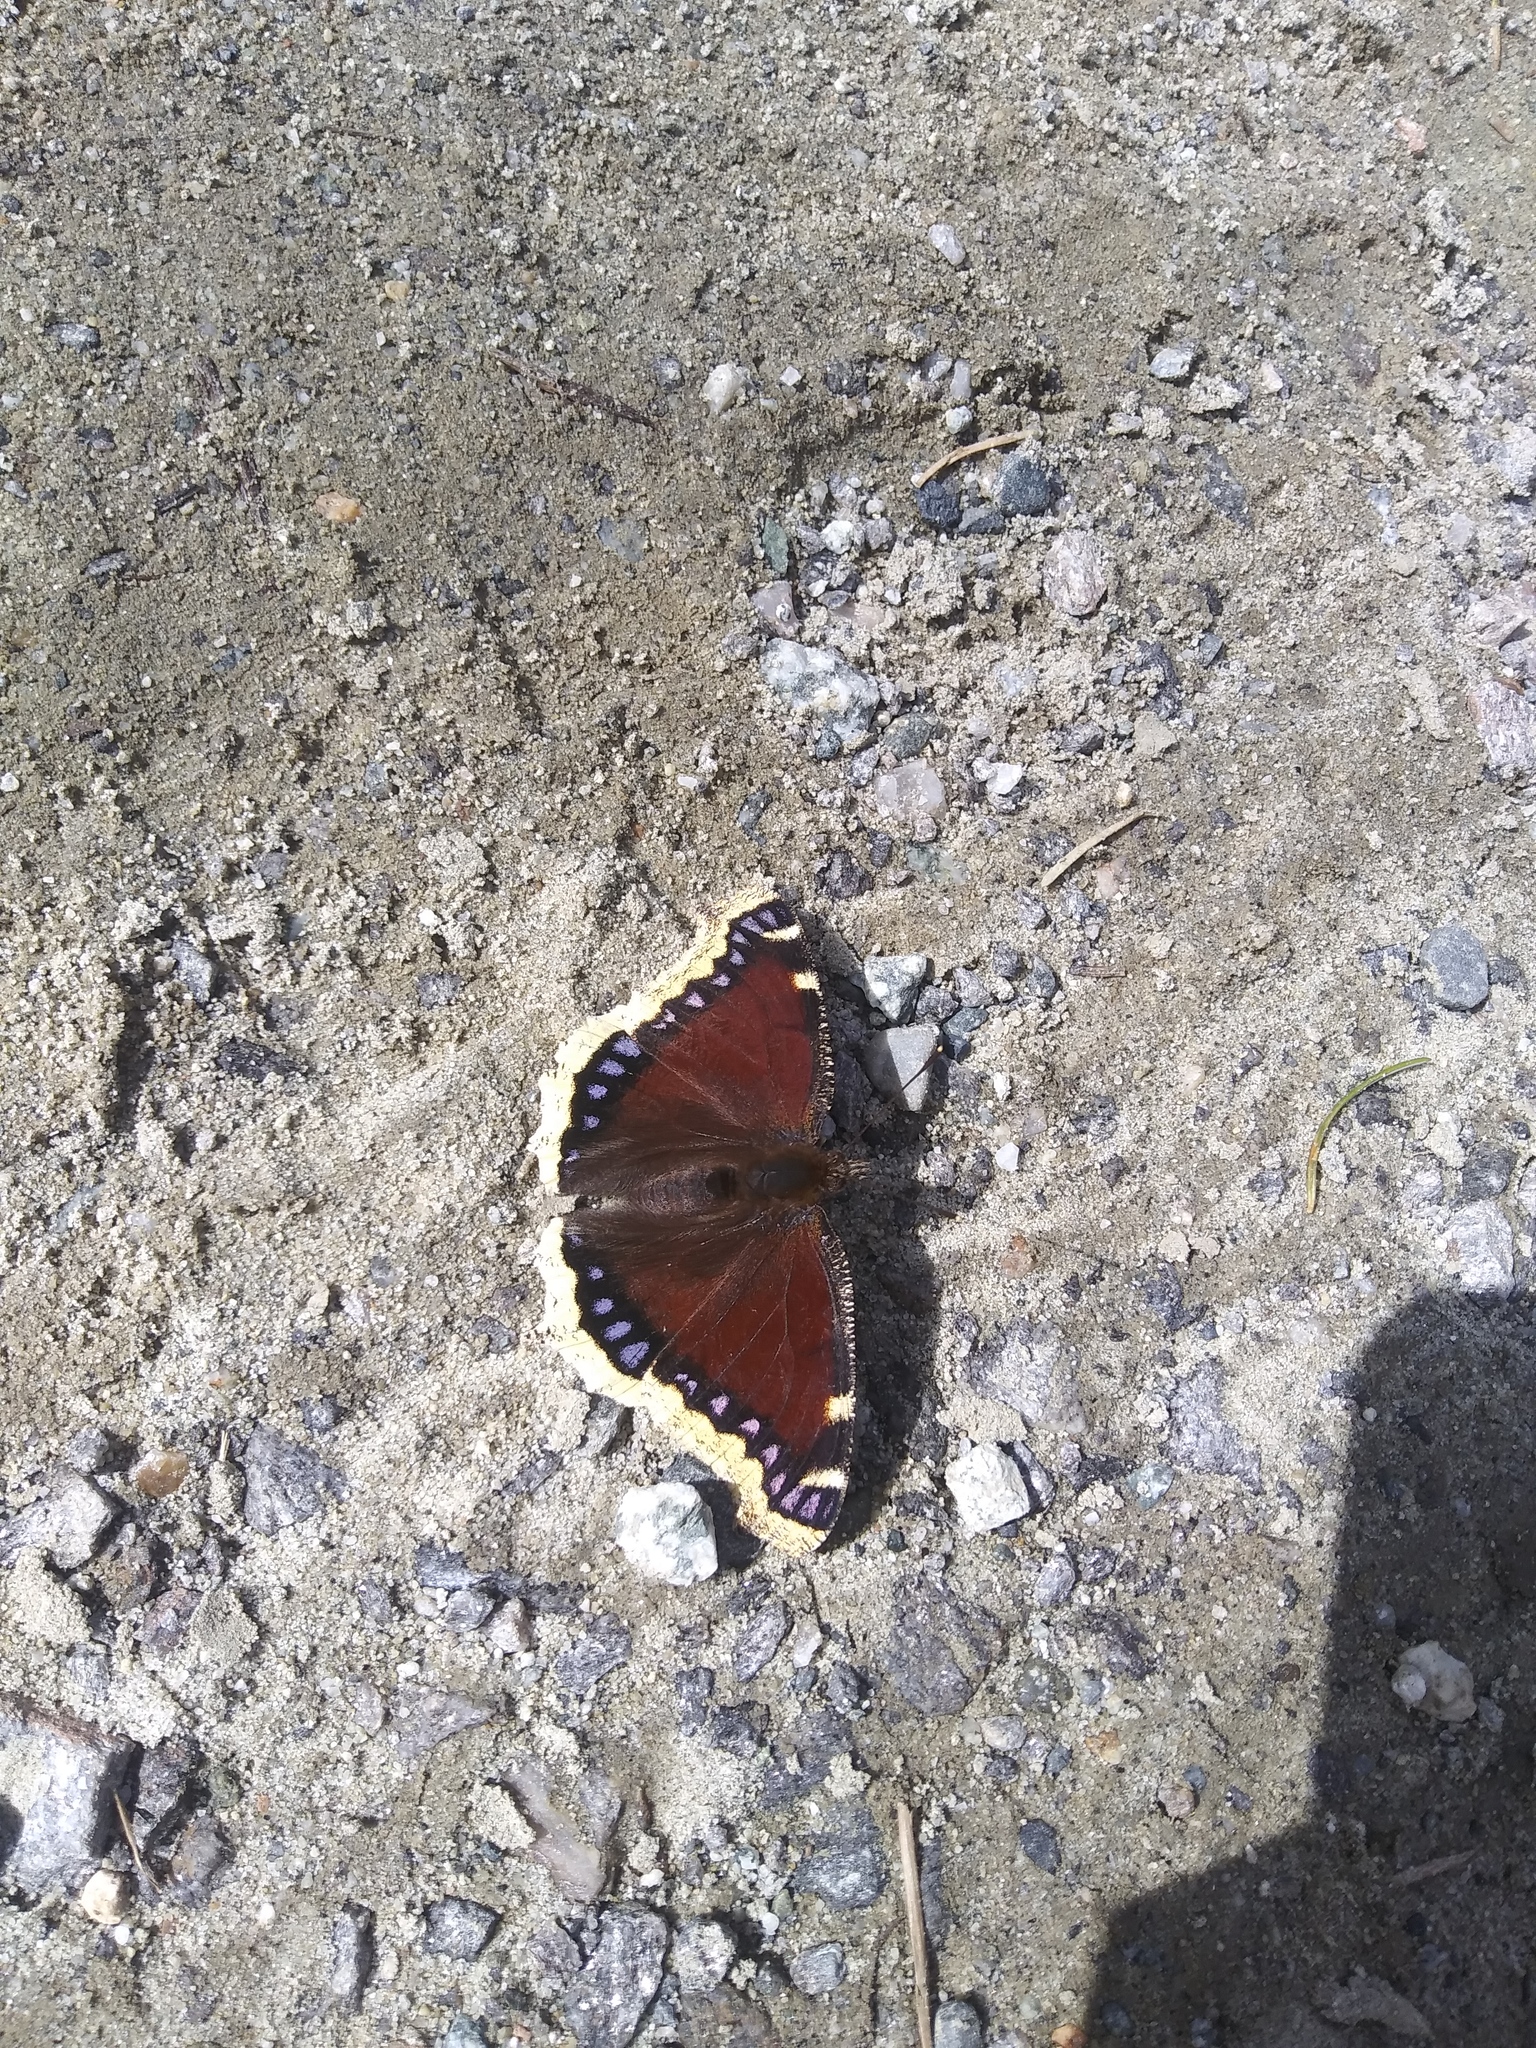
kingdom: Animalia
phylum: Arthropoda
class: Insecta
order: Lepidoptera
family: Nymphalidae
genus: Nymphalis
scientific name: Nymphalis antiopa
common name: Camberwell beauty
